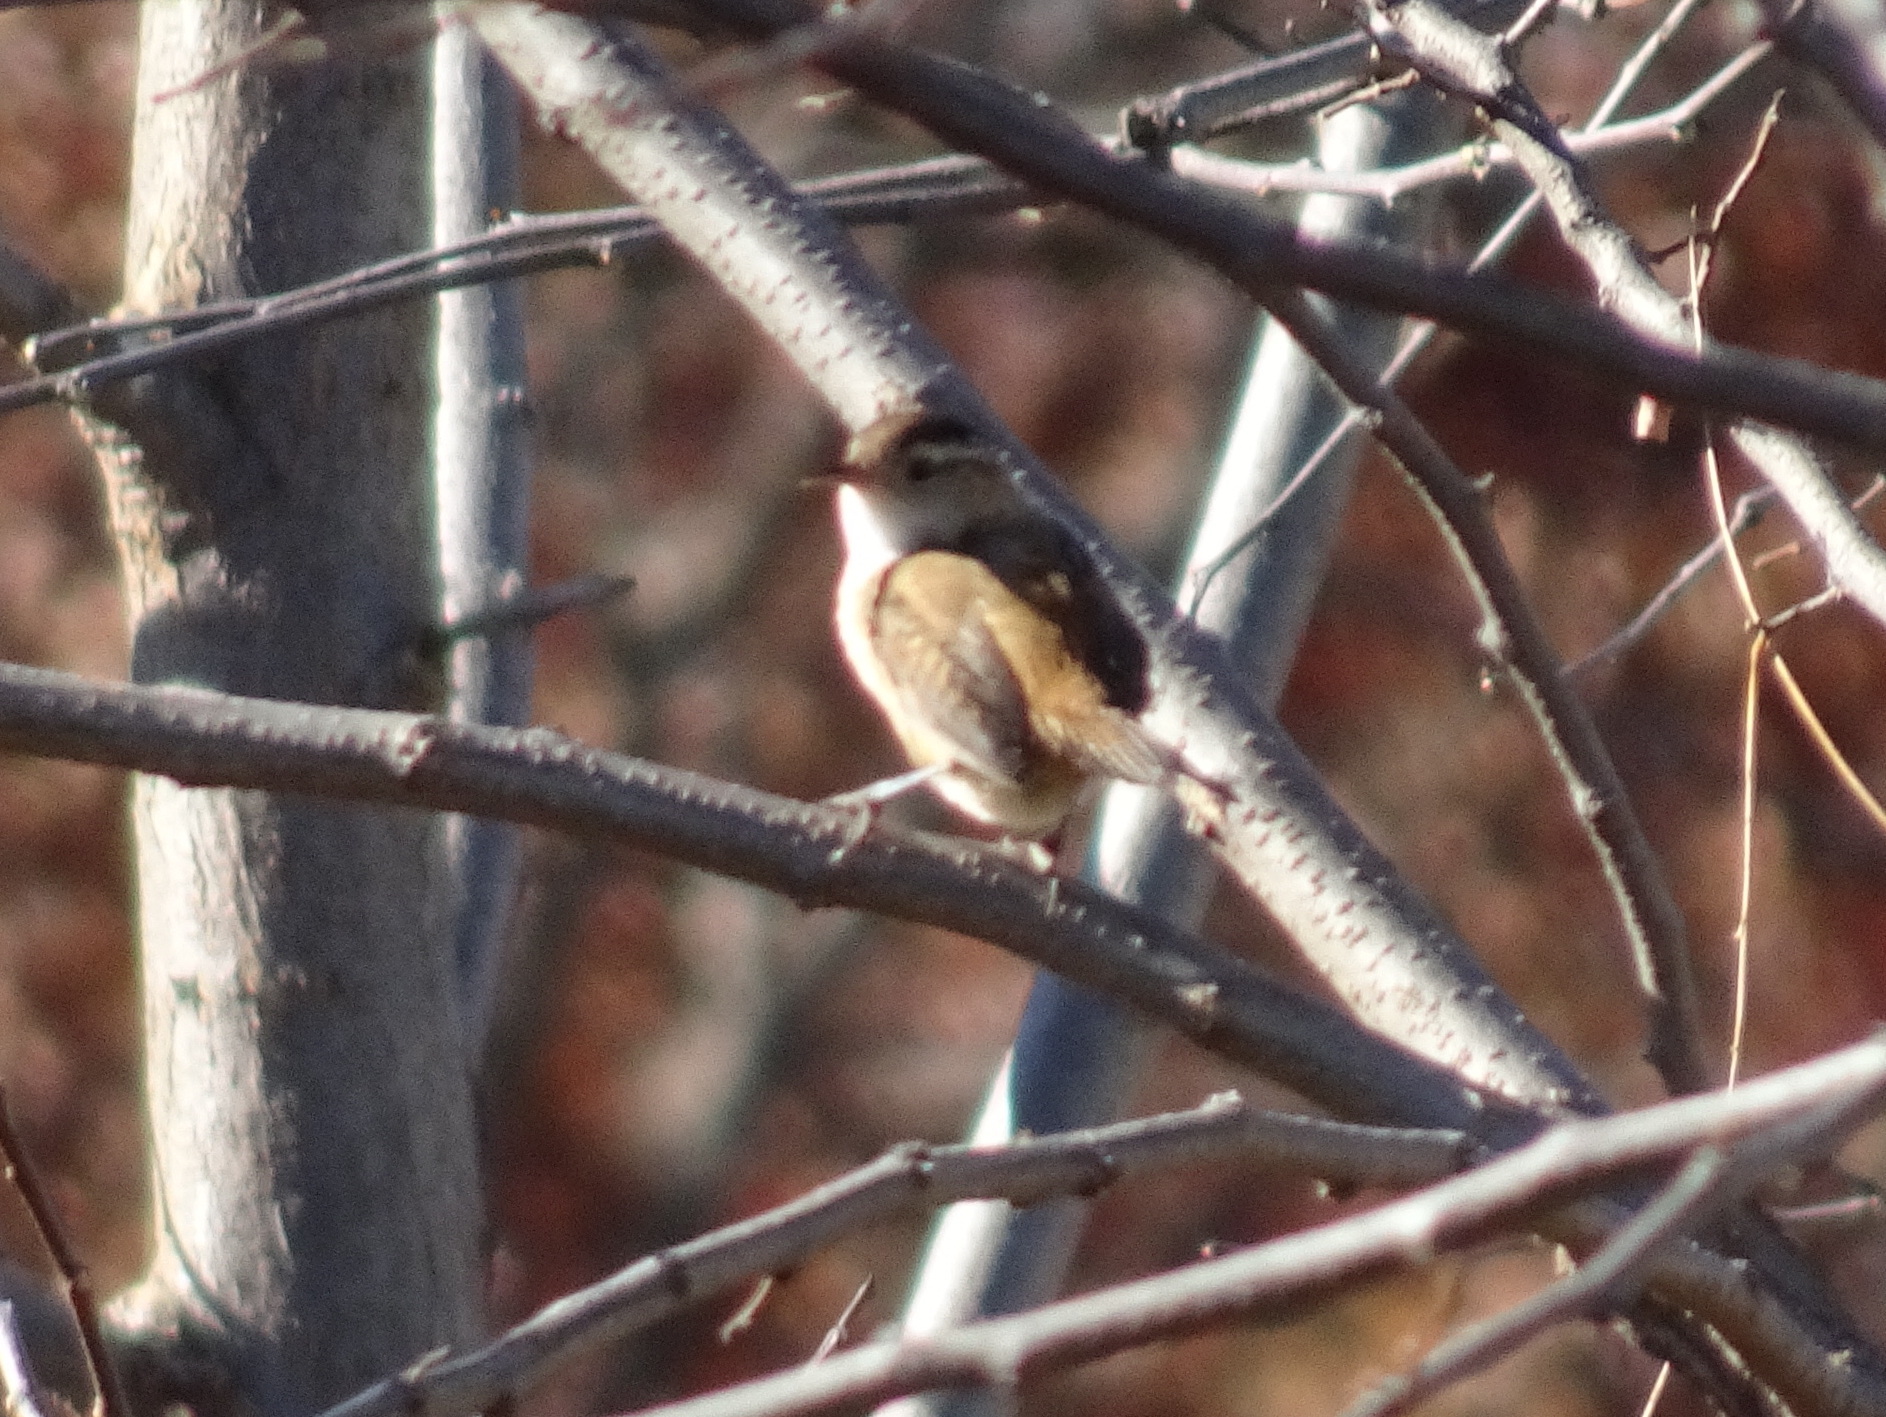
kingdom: Animalia
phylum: Chordata
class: Aves
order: Passeriformes
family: Troglodytidae
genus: Cistothorus
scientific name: Cistothorus palustris
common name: Marsh wren
